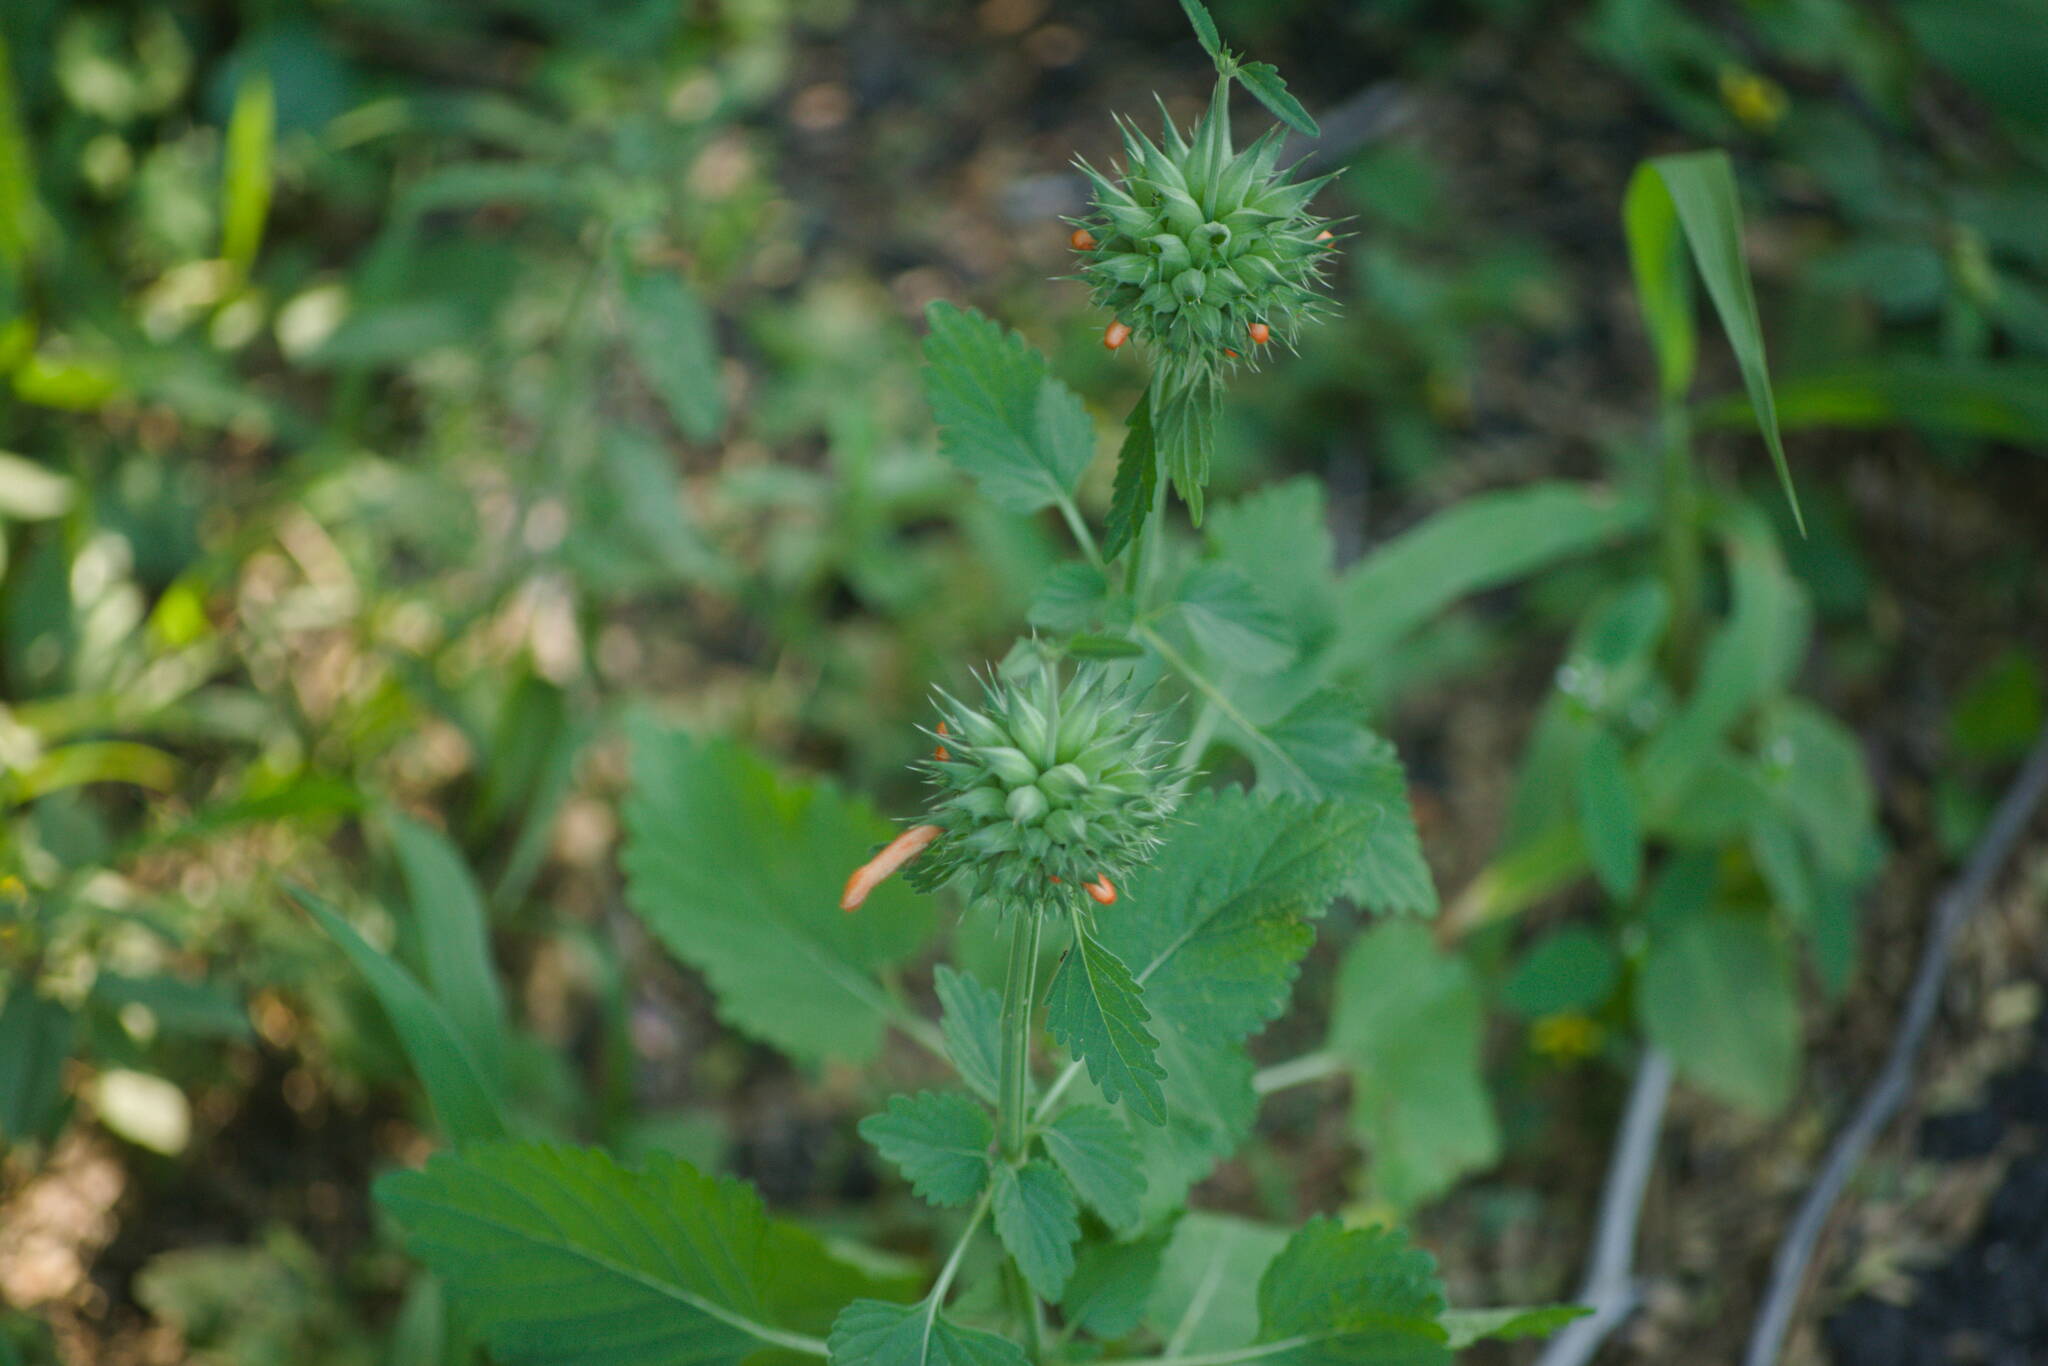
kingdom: Plantae
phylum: Tracheophyta
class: Magnoliopsida
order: Lamiales
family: Lamiaceae
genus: Leonotis
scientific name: Leonotis nepetifolia
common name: Christmas candlestick
